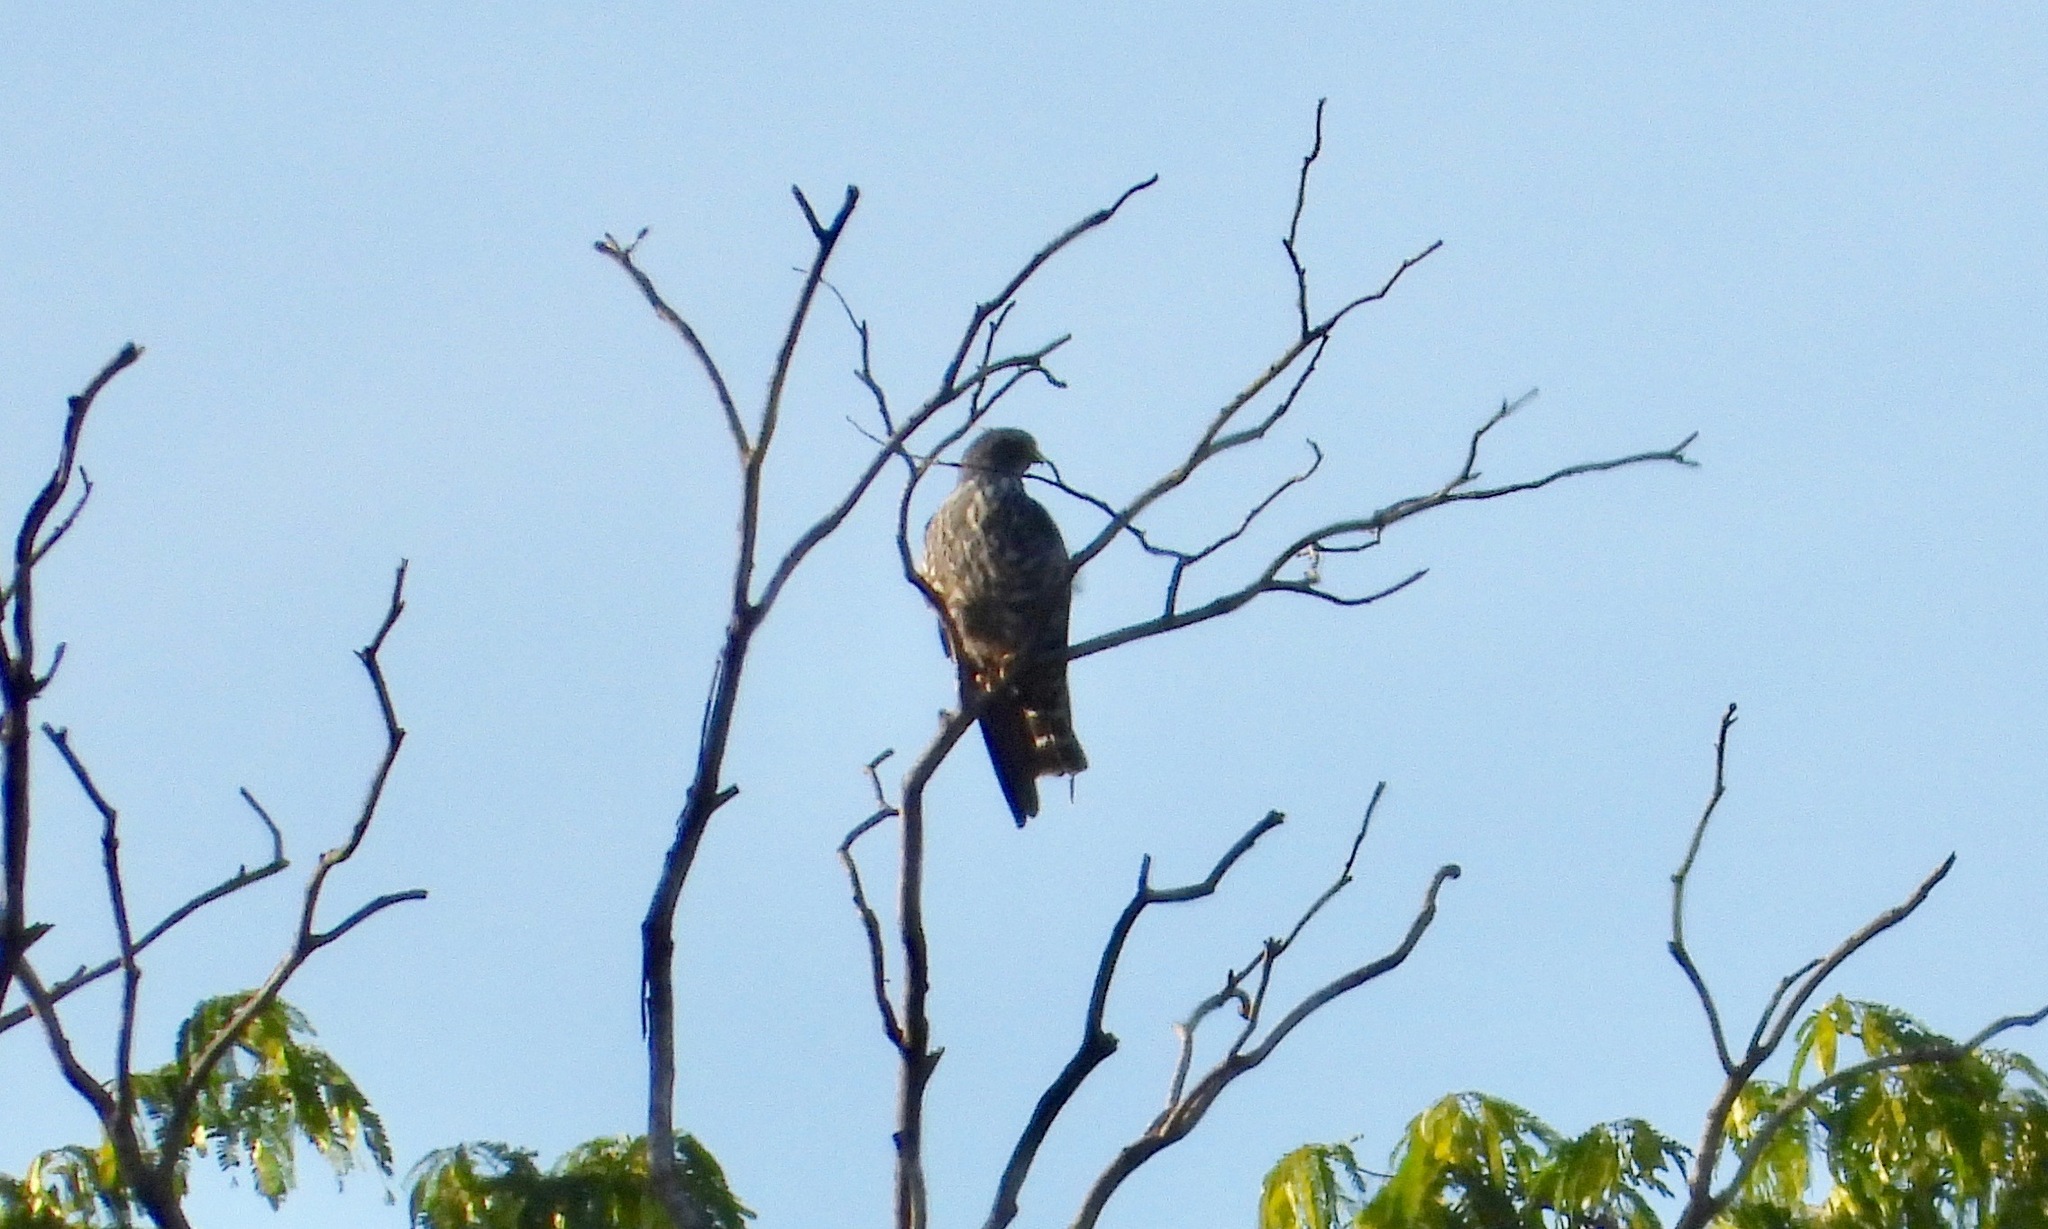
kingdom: Animalia
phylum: Chordata
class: Aves
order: Accipitriformes
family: Accipitridae
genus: Ictinia
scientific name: Ictinia plumbea
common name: Plumbeous kite
